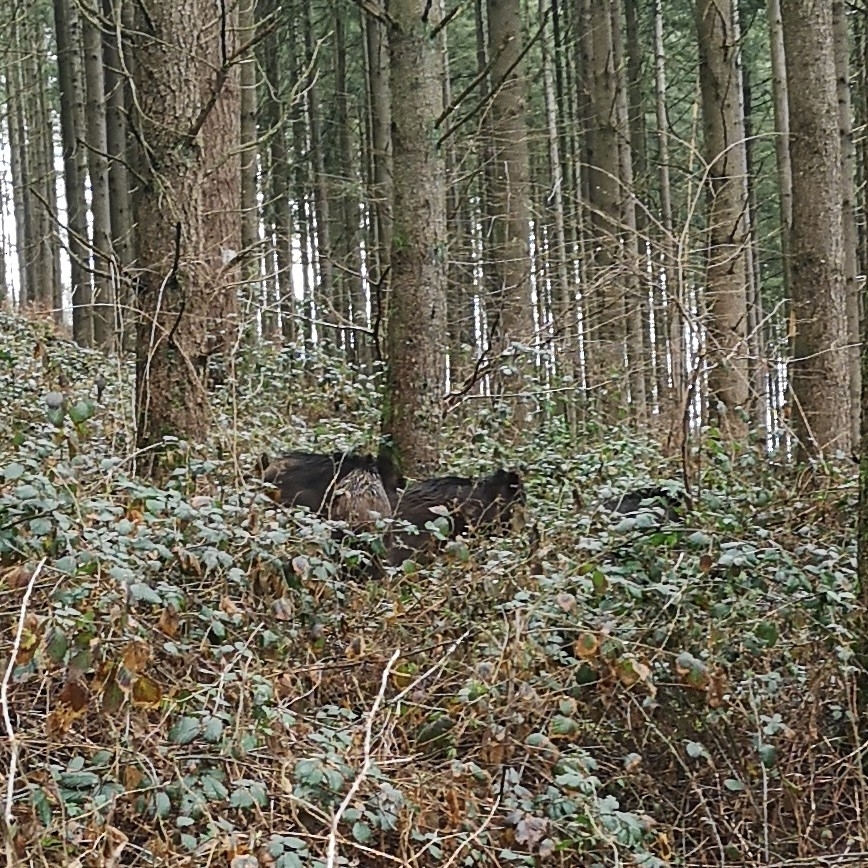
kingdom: Animalia
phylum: Chordata
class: Mammalia
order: Artiodactyla
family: Suidae
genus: Sus
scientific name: Sus scrofa
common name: Wild boar
